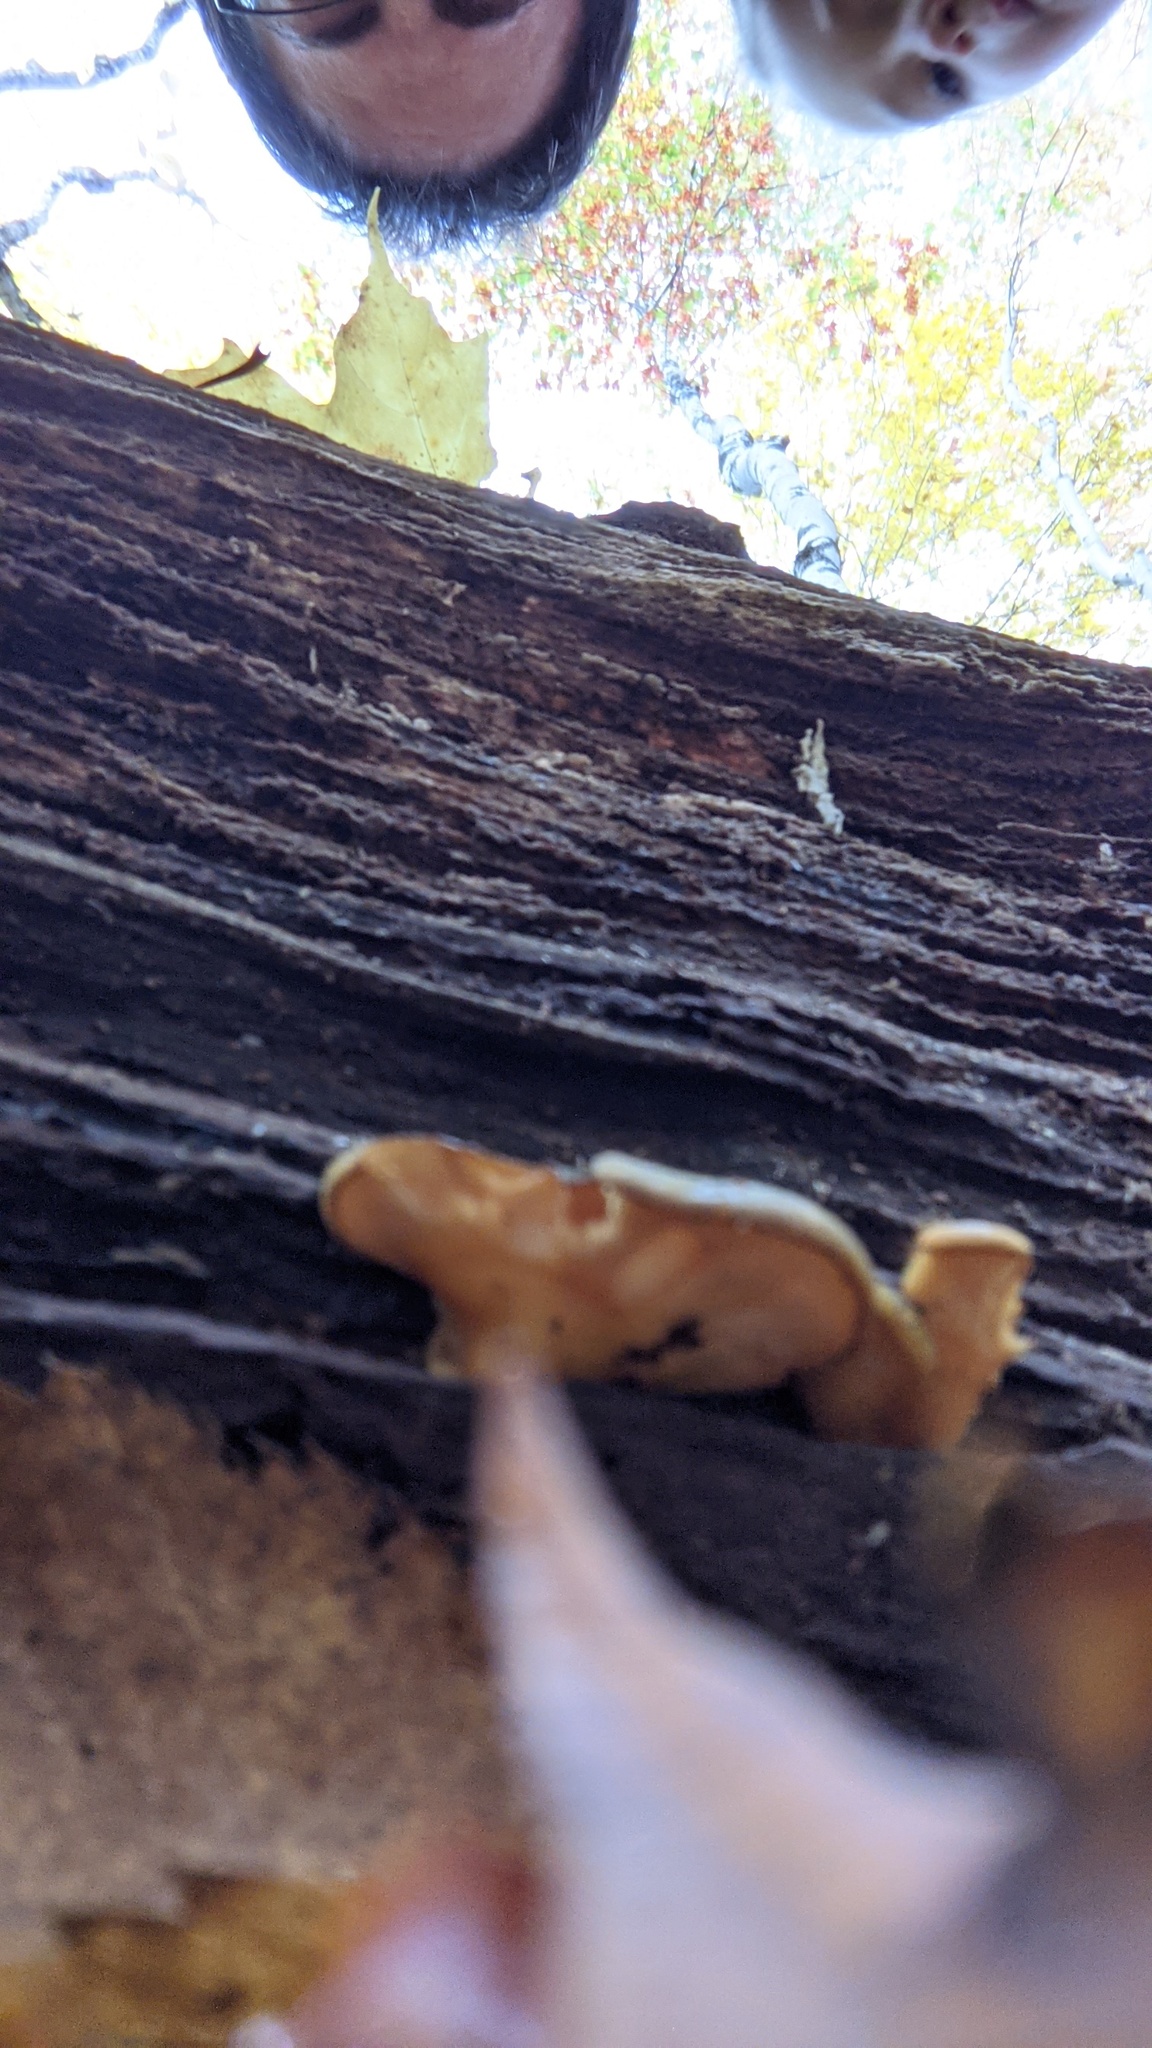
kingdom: Fungi
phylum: Basidiomycota
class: Agaricomycetes
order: Agaricales
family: Sarcomyxaceae
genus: Sarcomyxa
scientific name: Sarcomyxa serotina
